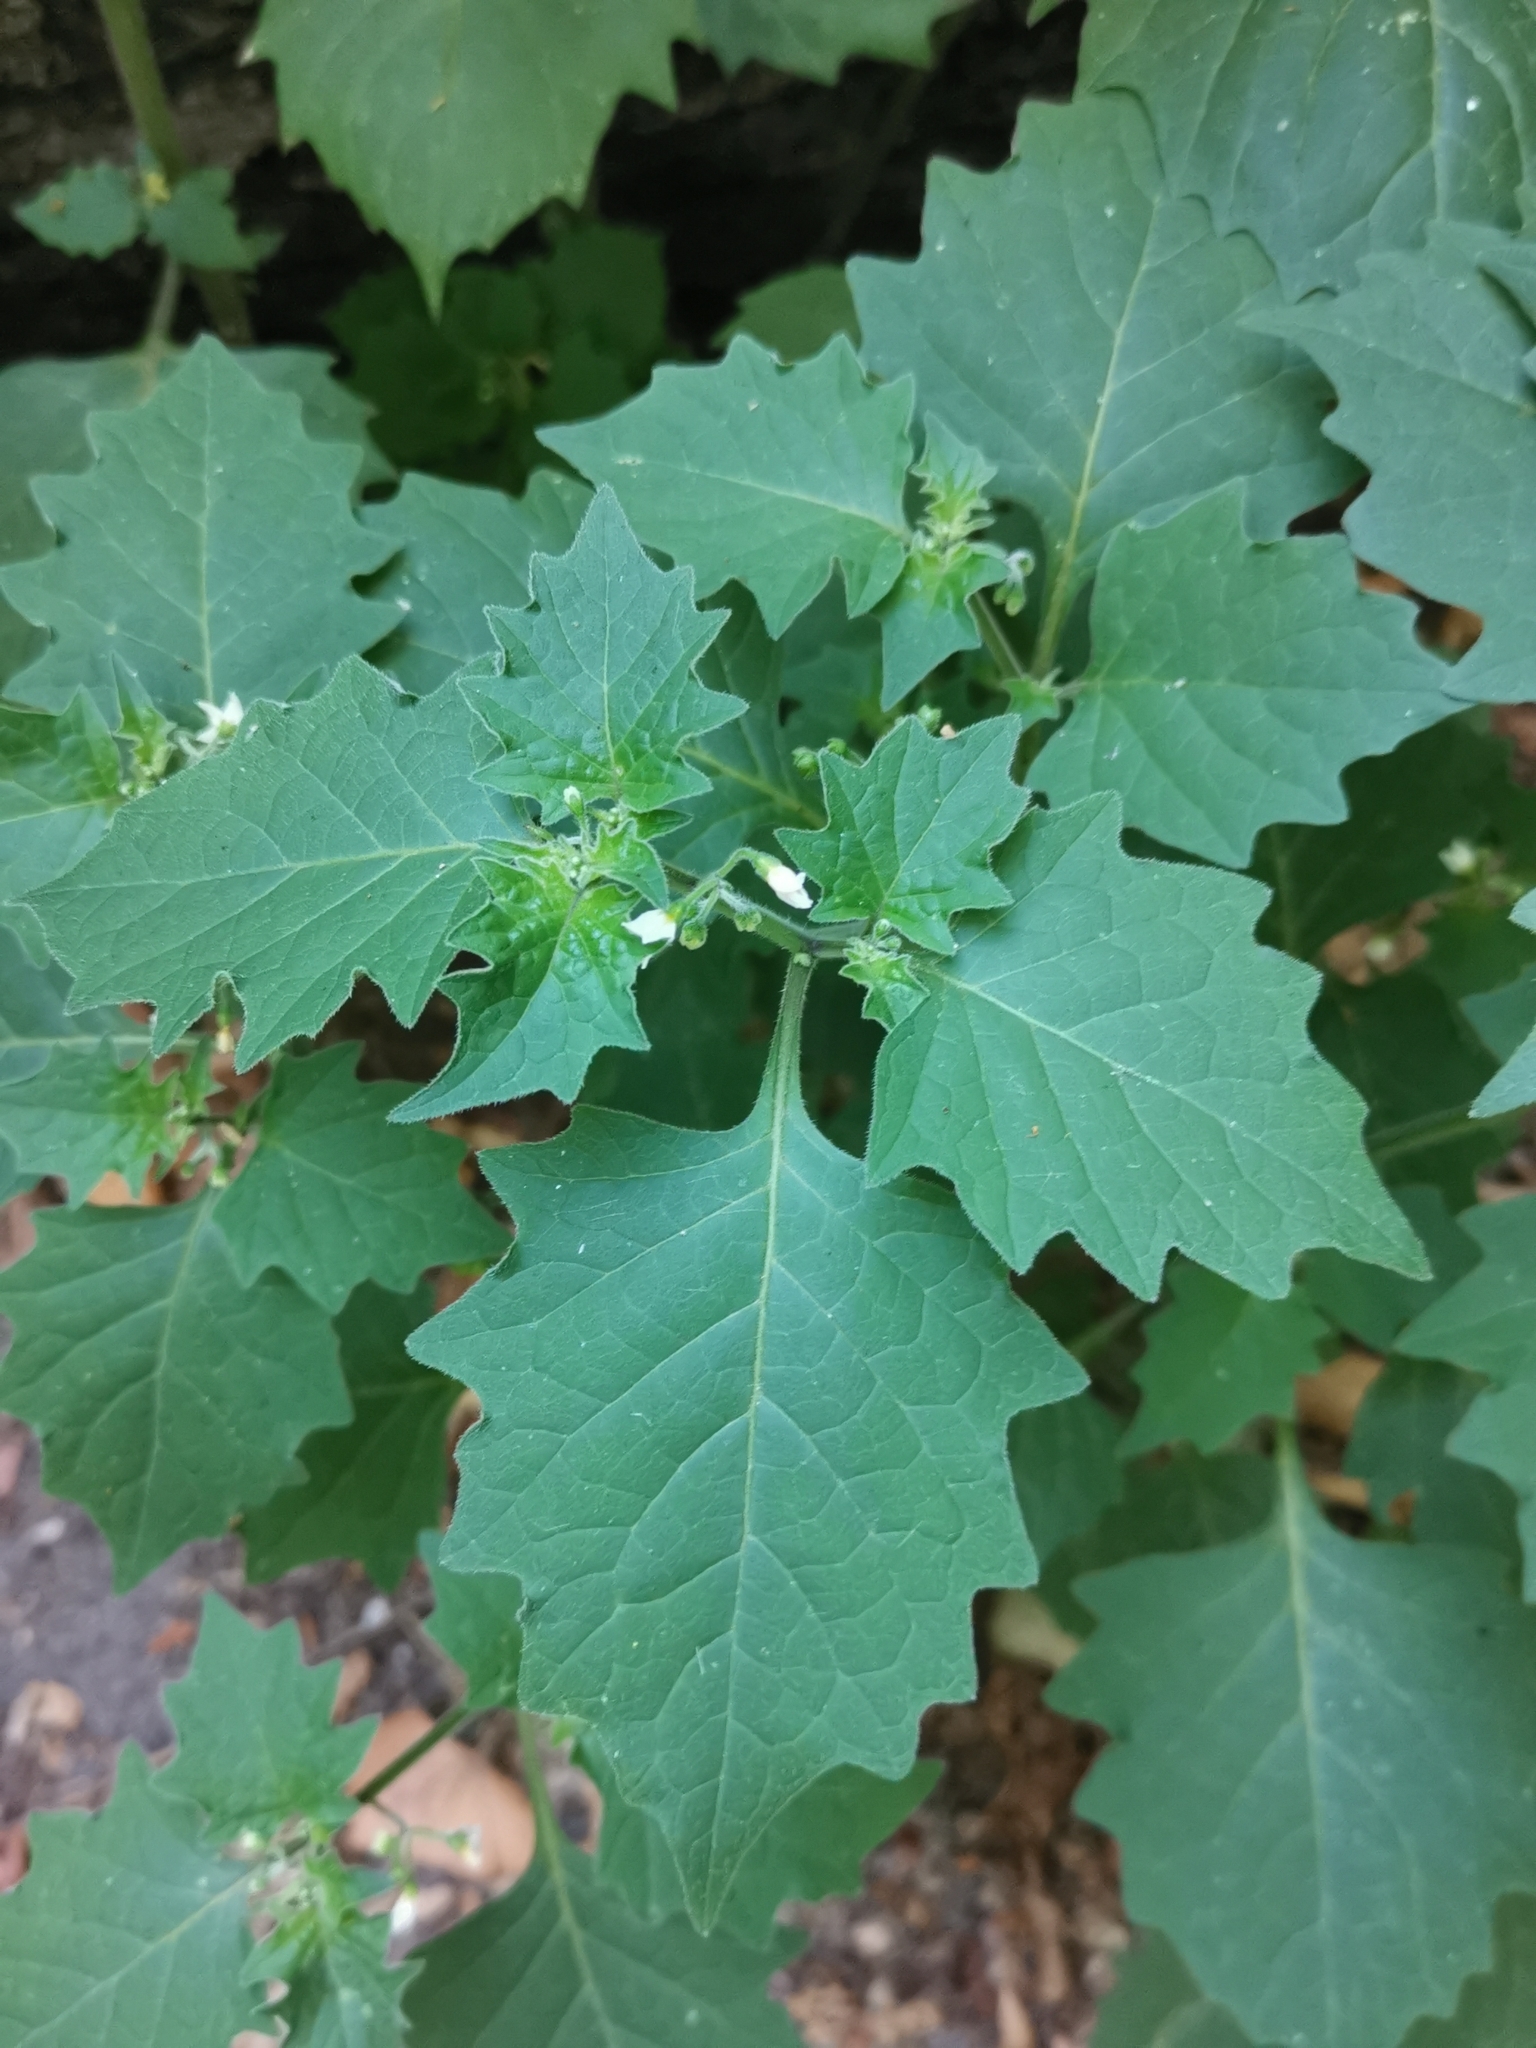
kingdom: Plantae
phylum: Tracheophyta
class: Magnoliopsida
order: Solanales
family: Solanaceae
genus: Solanum
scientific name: Solanum nigrum
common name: Black nightshade
